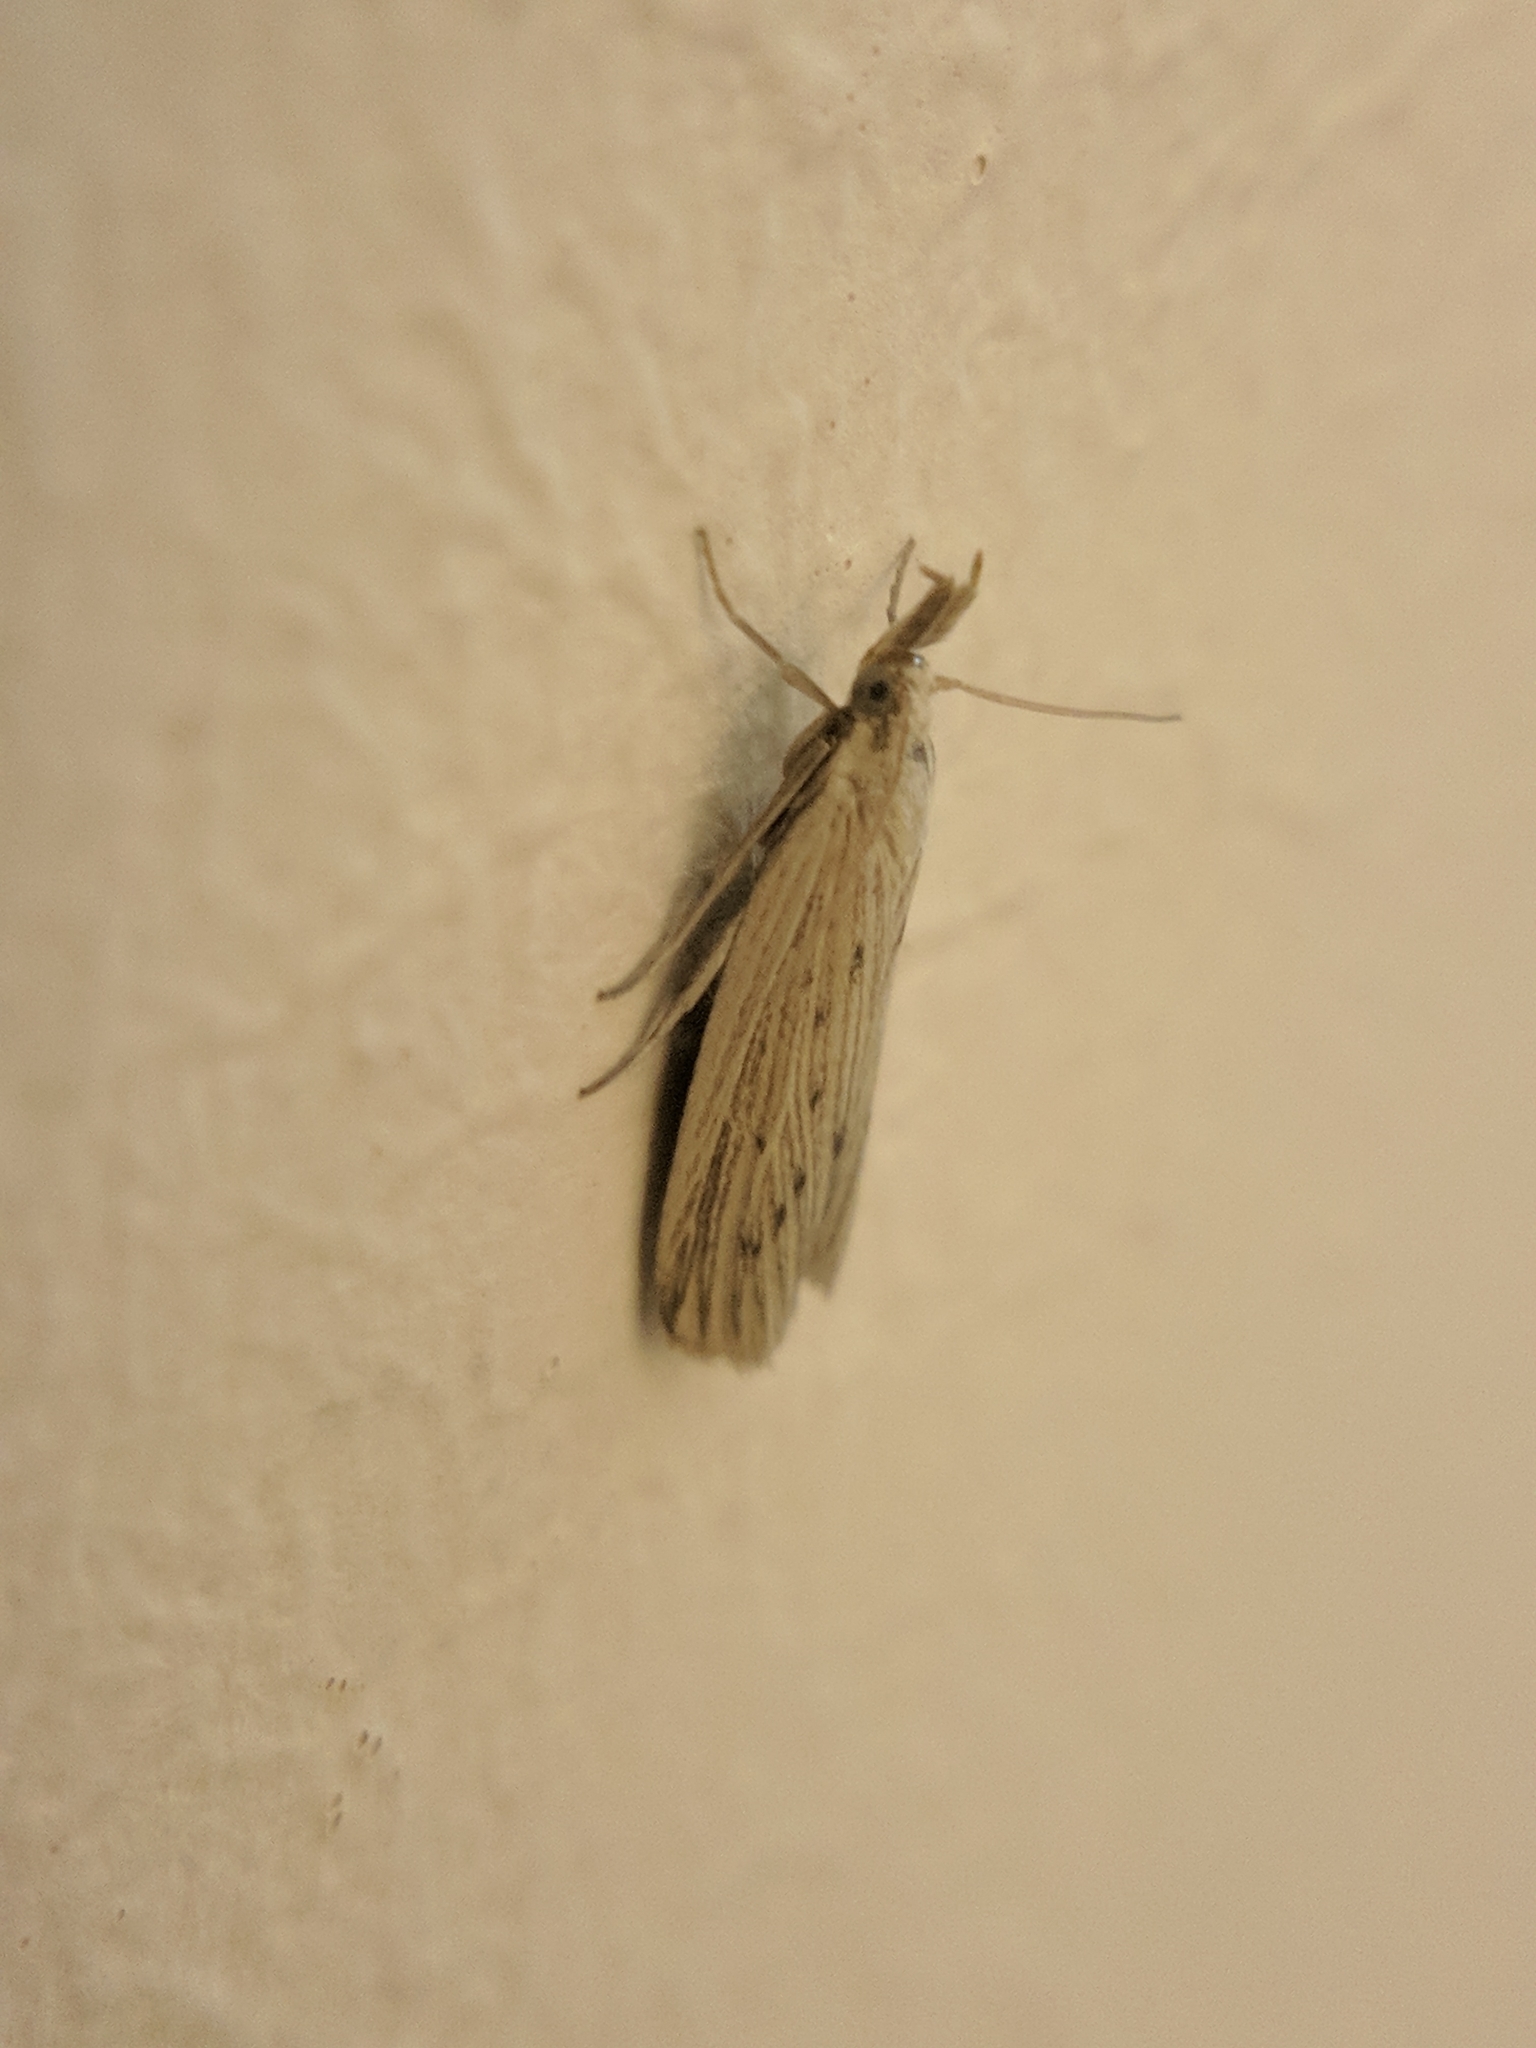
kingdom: Animalia
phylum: Arthropoda
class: Insecta
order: Lepidoptera
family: Pyralidae
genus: Ematheudes
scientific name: Ematheudes punctellus
